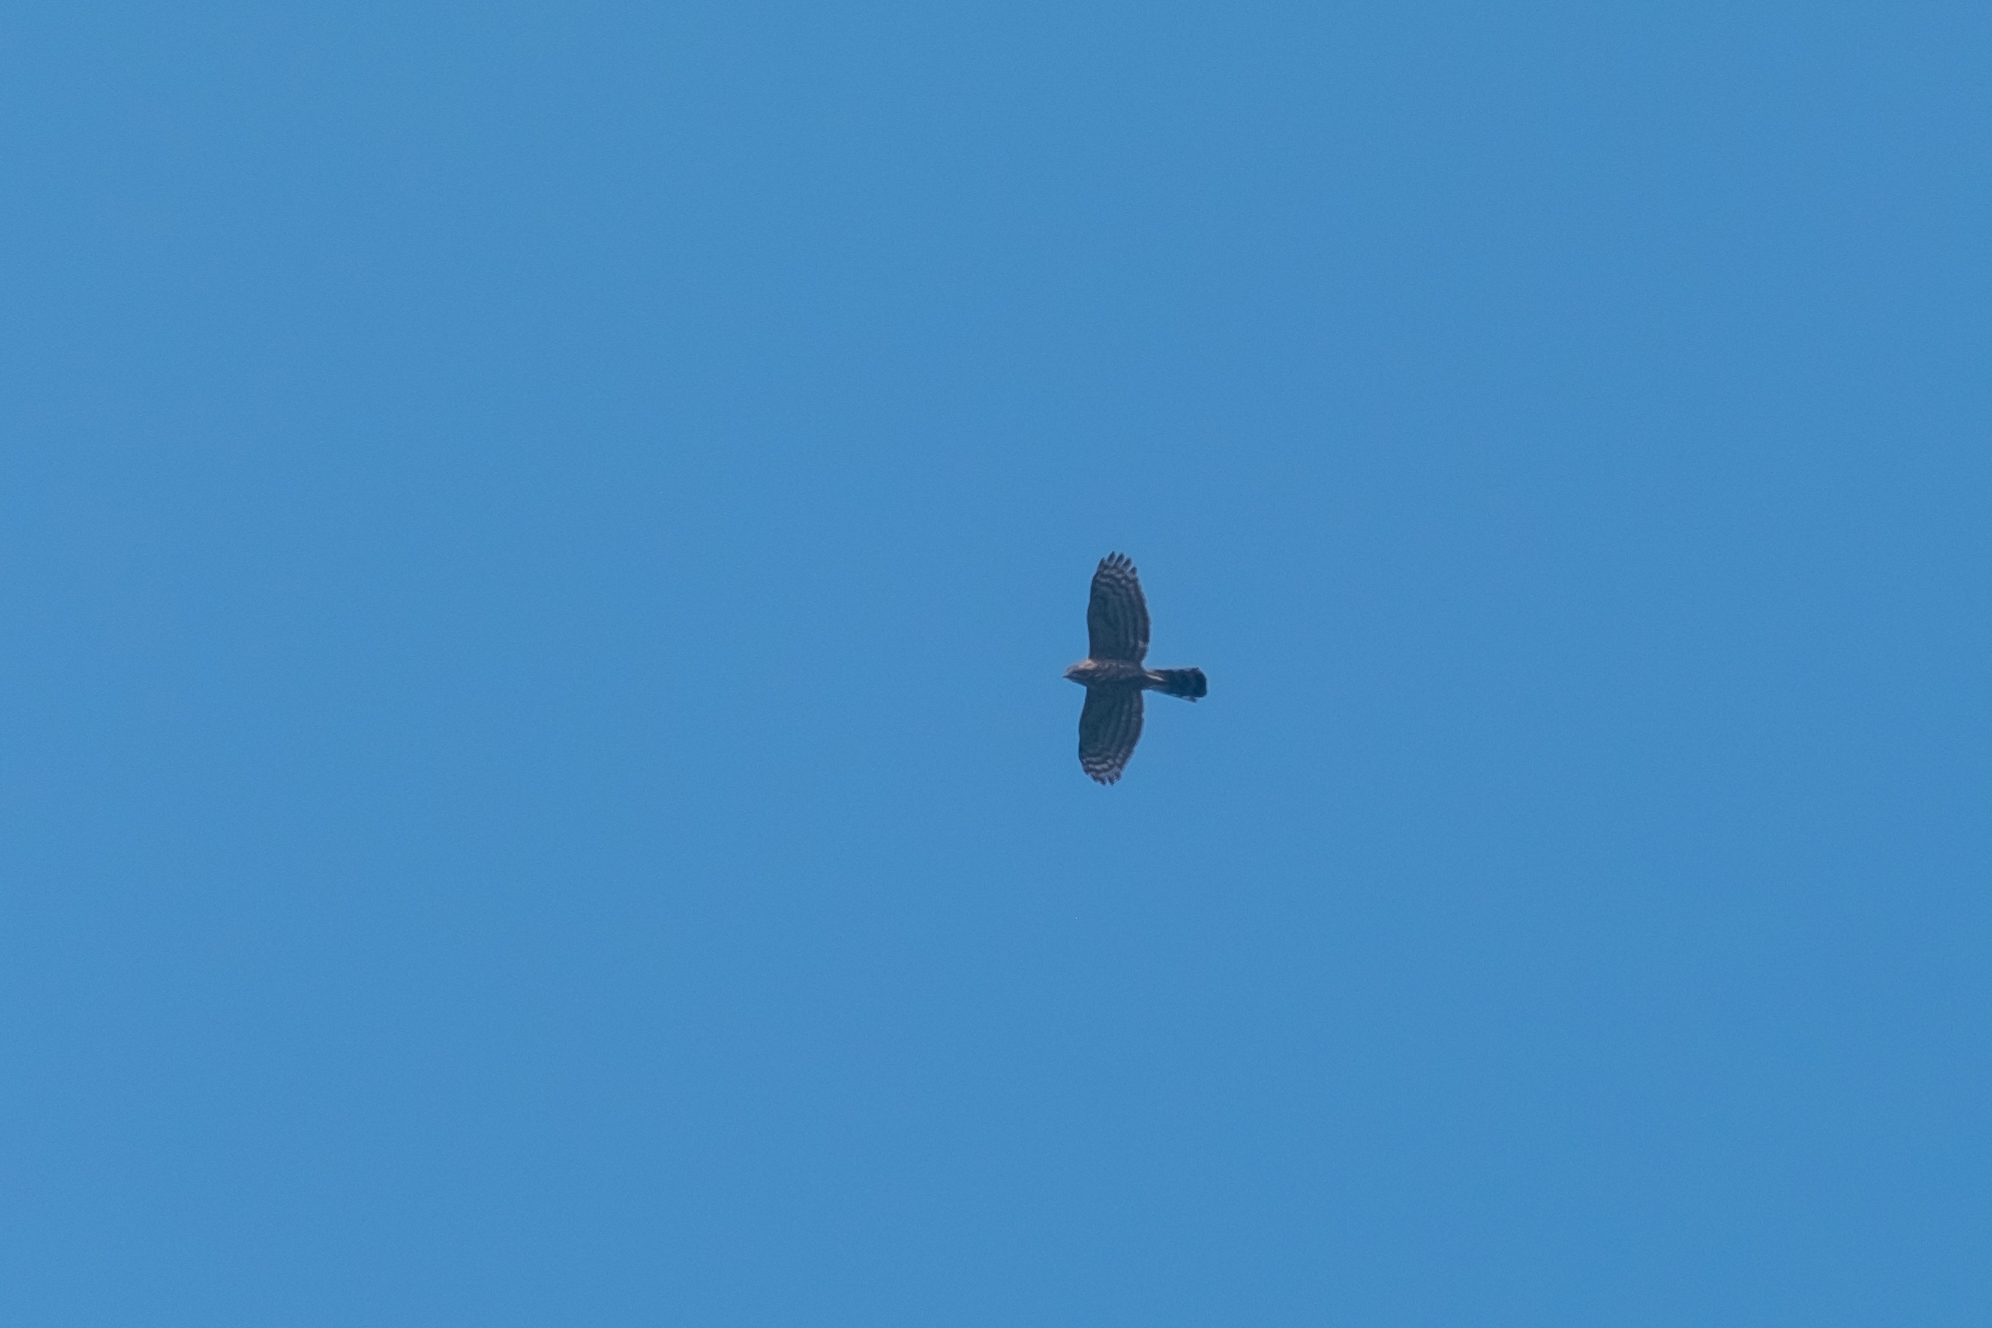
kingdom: Animalia
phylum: Chordata
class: Aves
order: Accipitriformes
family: Accipitridae
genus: Accipiter
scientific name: Accipiter trivirgatus
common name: Crested goshawk
